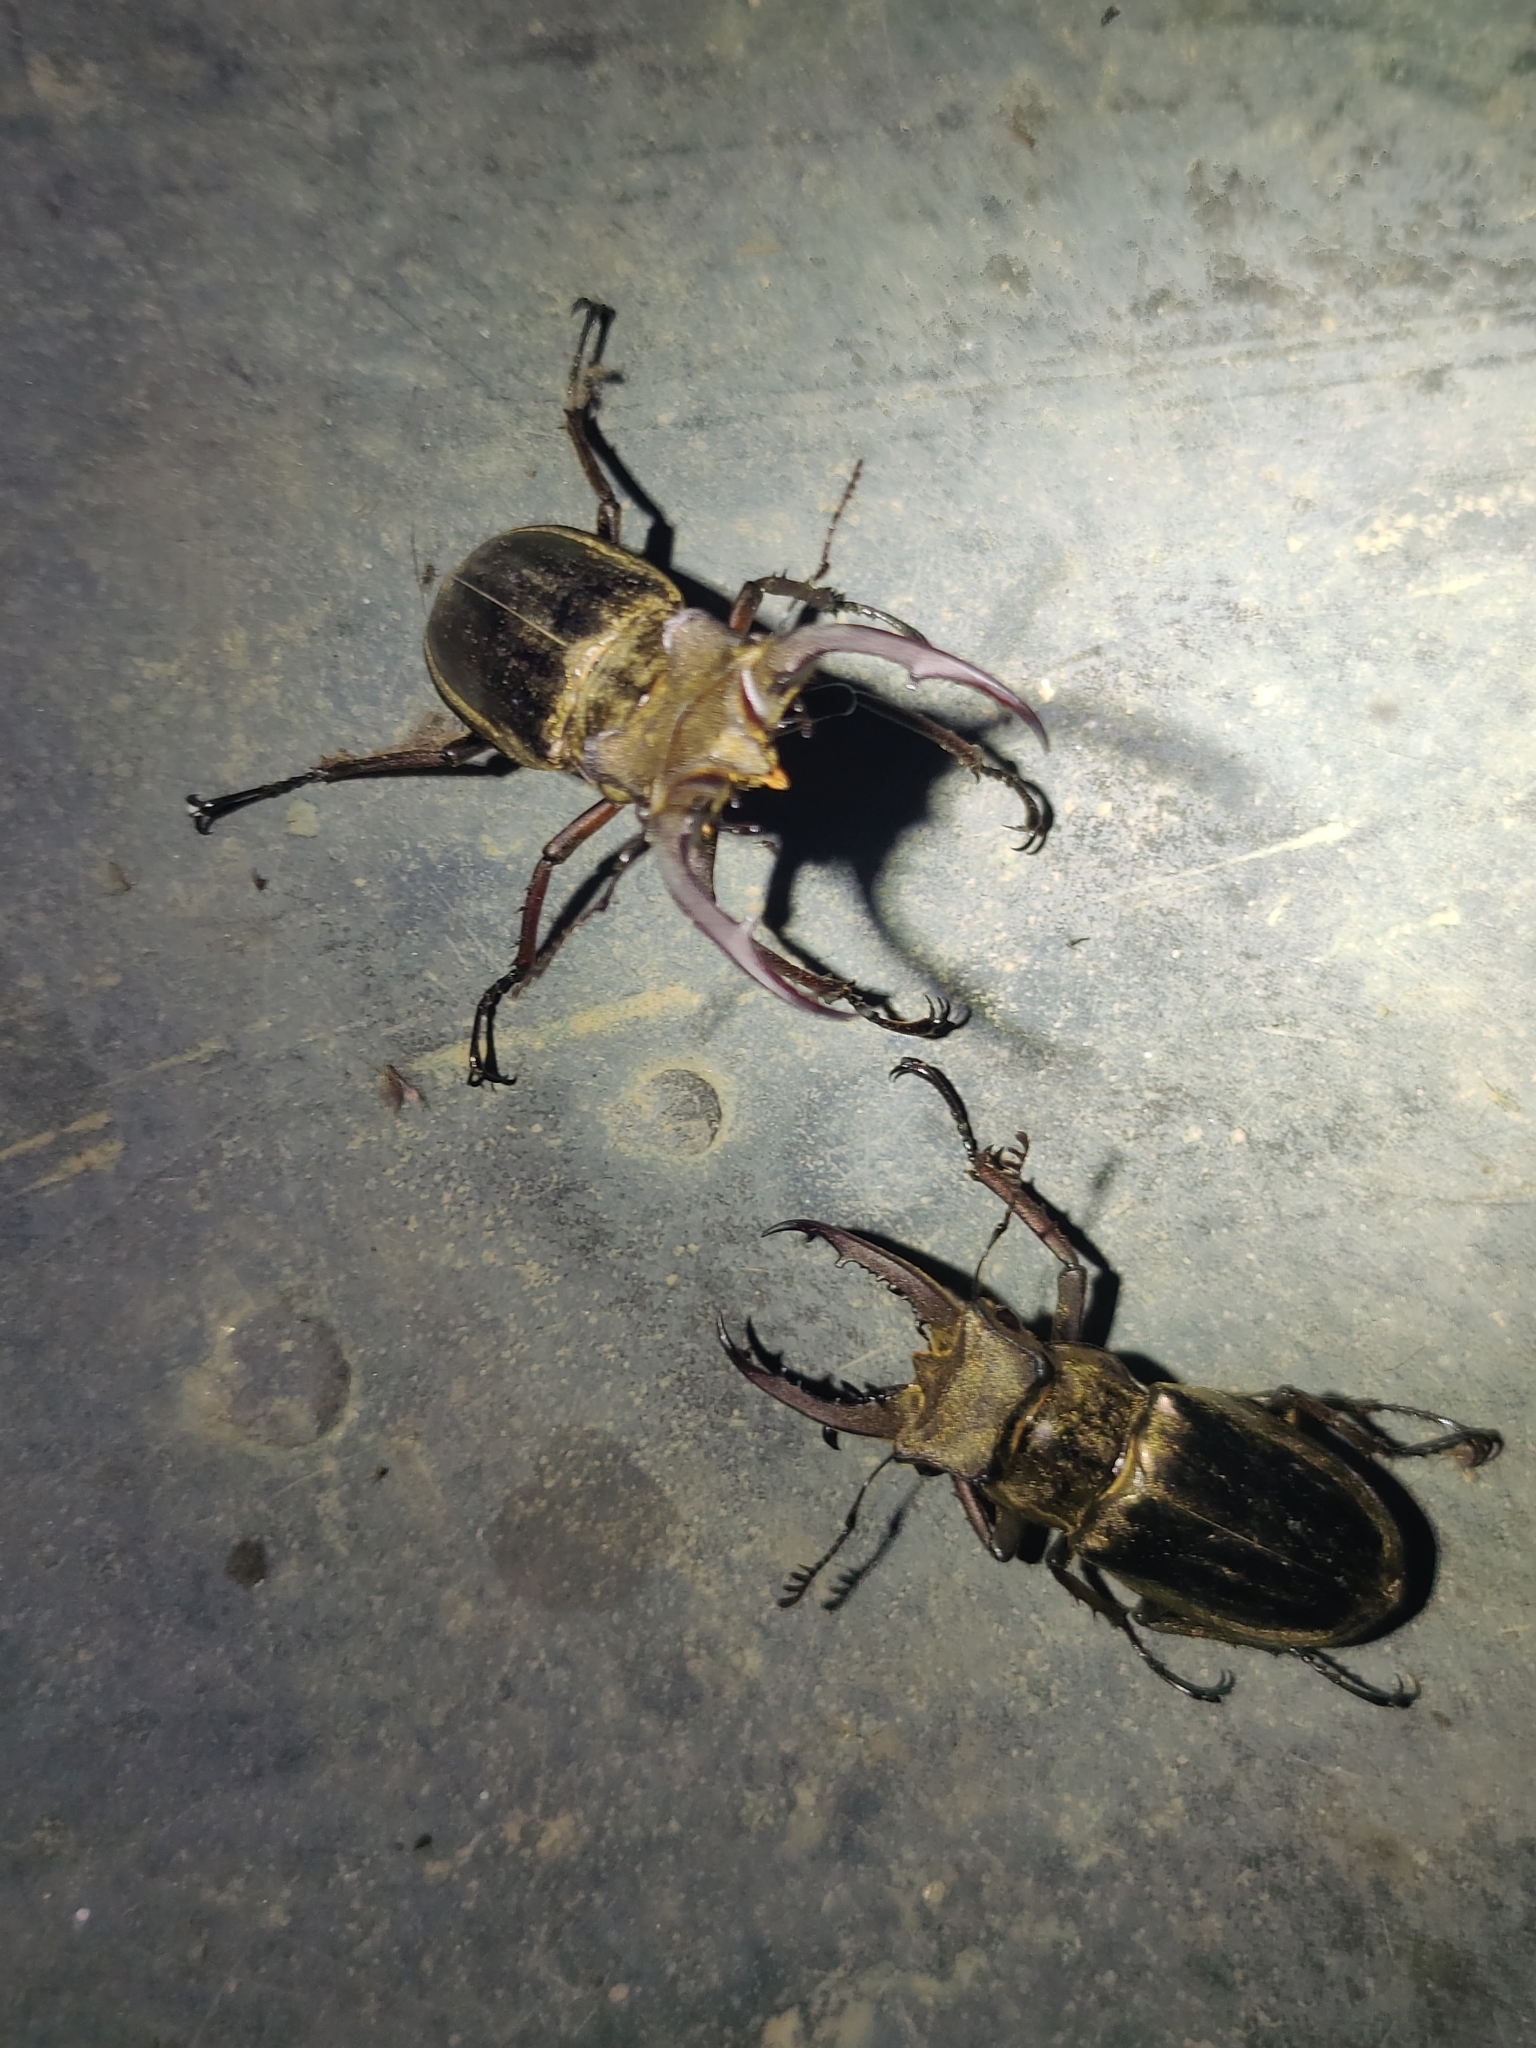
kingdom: Animalia
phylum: Arthropoda
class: Insecta
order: Coleoptera
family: Lucanidae
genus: Lucanus
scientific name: Lucanus mearesii
